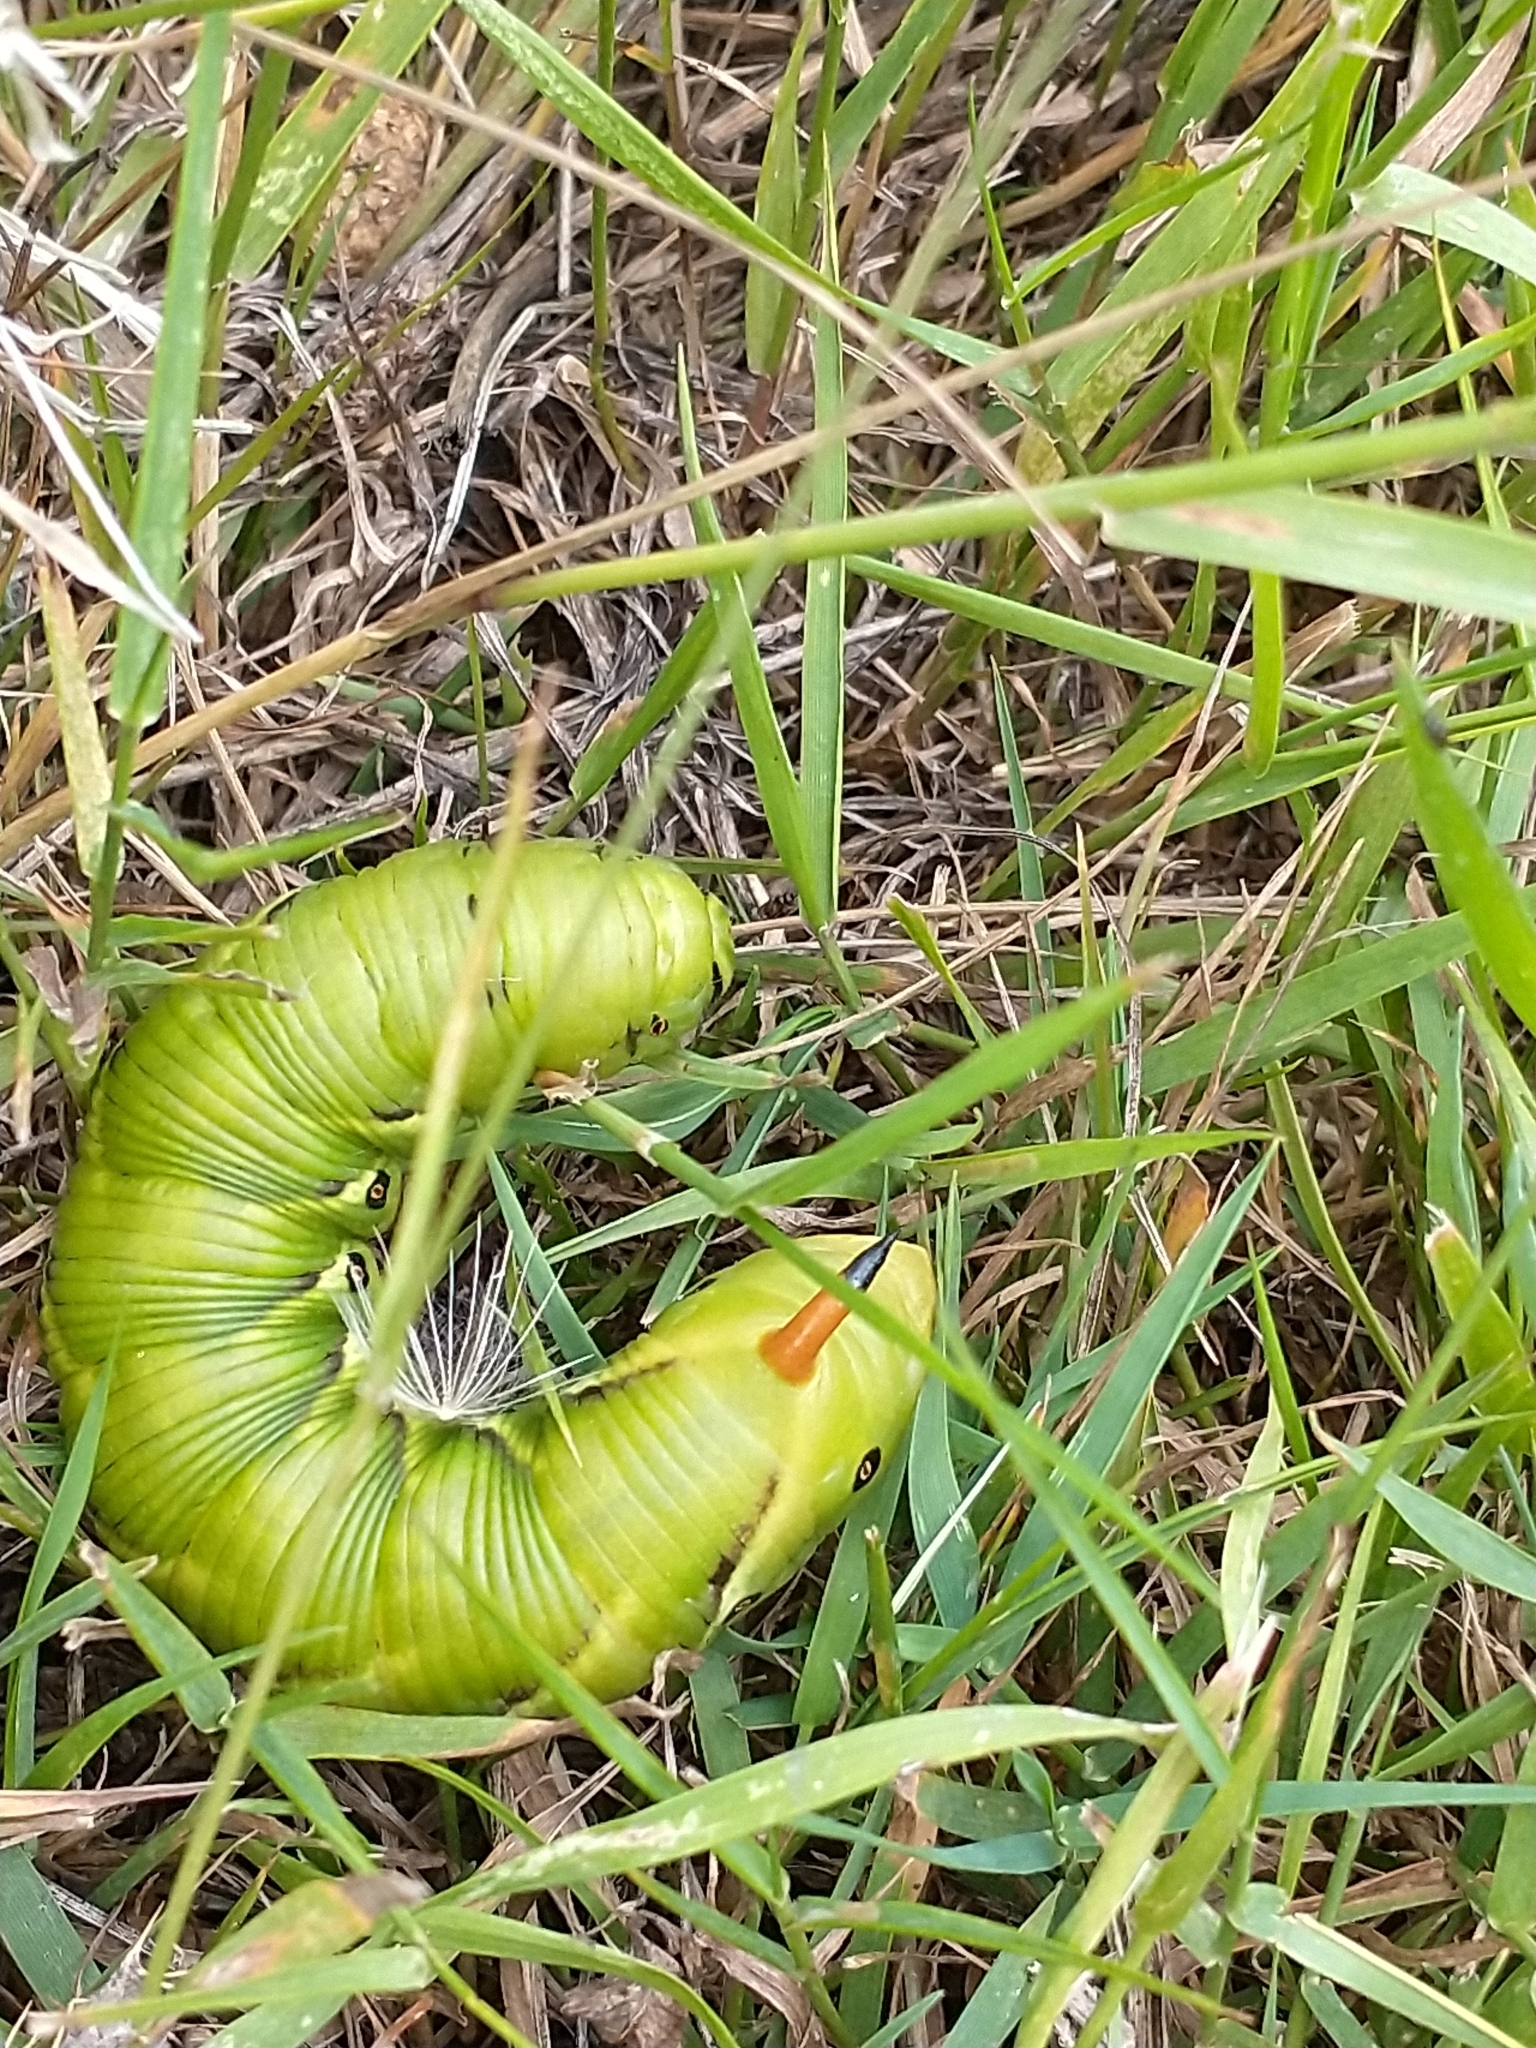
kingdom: Animalia
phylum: Arthropoda
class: Insecta
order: Lepidoptera
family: Sphingidae
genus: Agrius
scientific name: Agrius convolvuli
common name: Convolvulus hawkmoth
